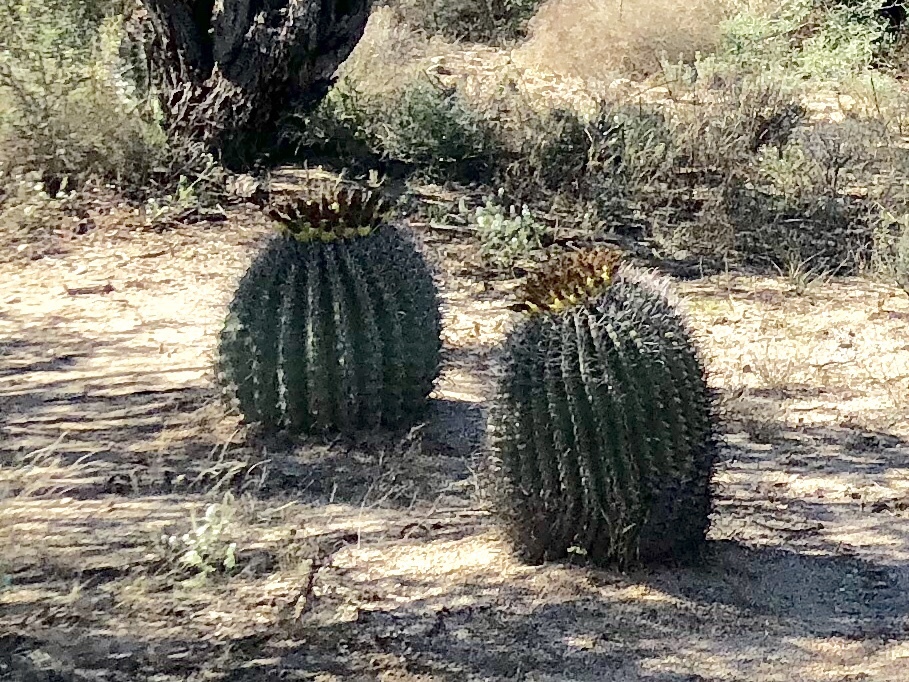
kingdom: Plantae
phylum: Tracheophyta
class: Magnoliopsida
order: Caryophyllales
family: Cactaceae
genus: Ferocactus
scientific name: Ferocactus wislizeni
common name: Candy barrel cactus
